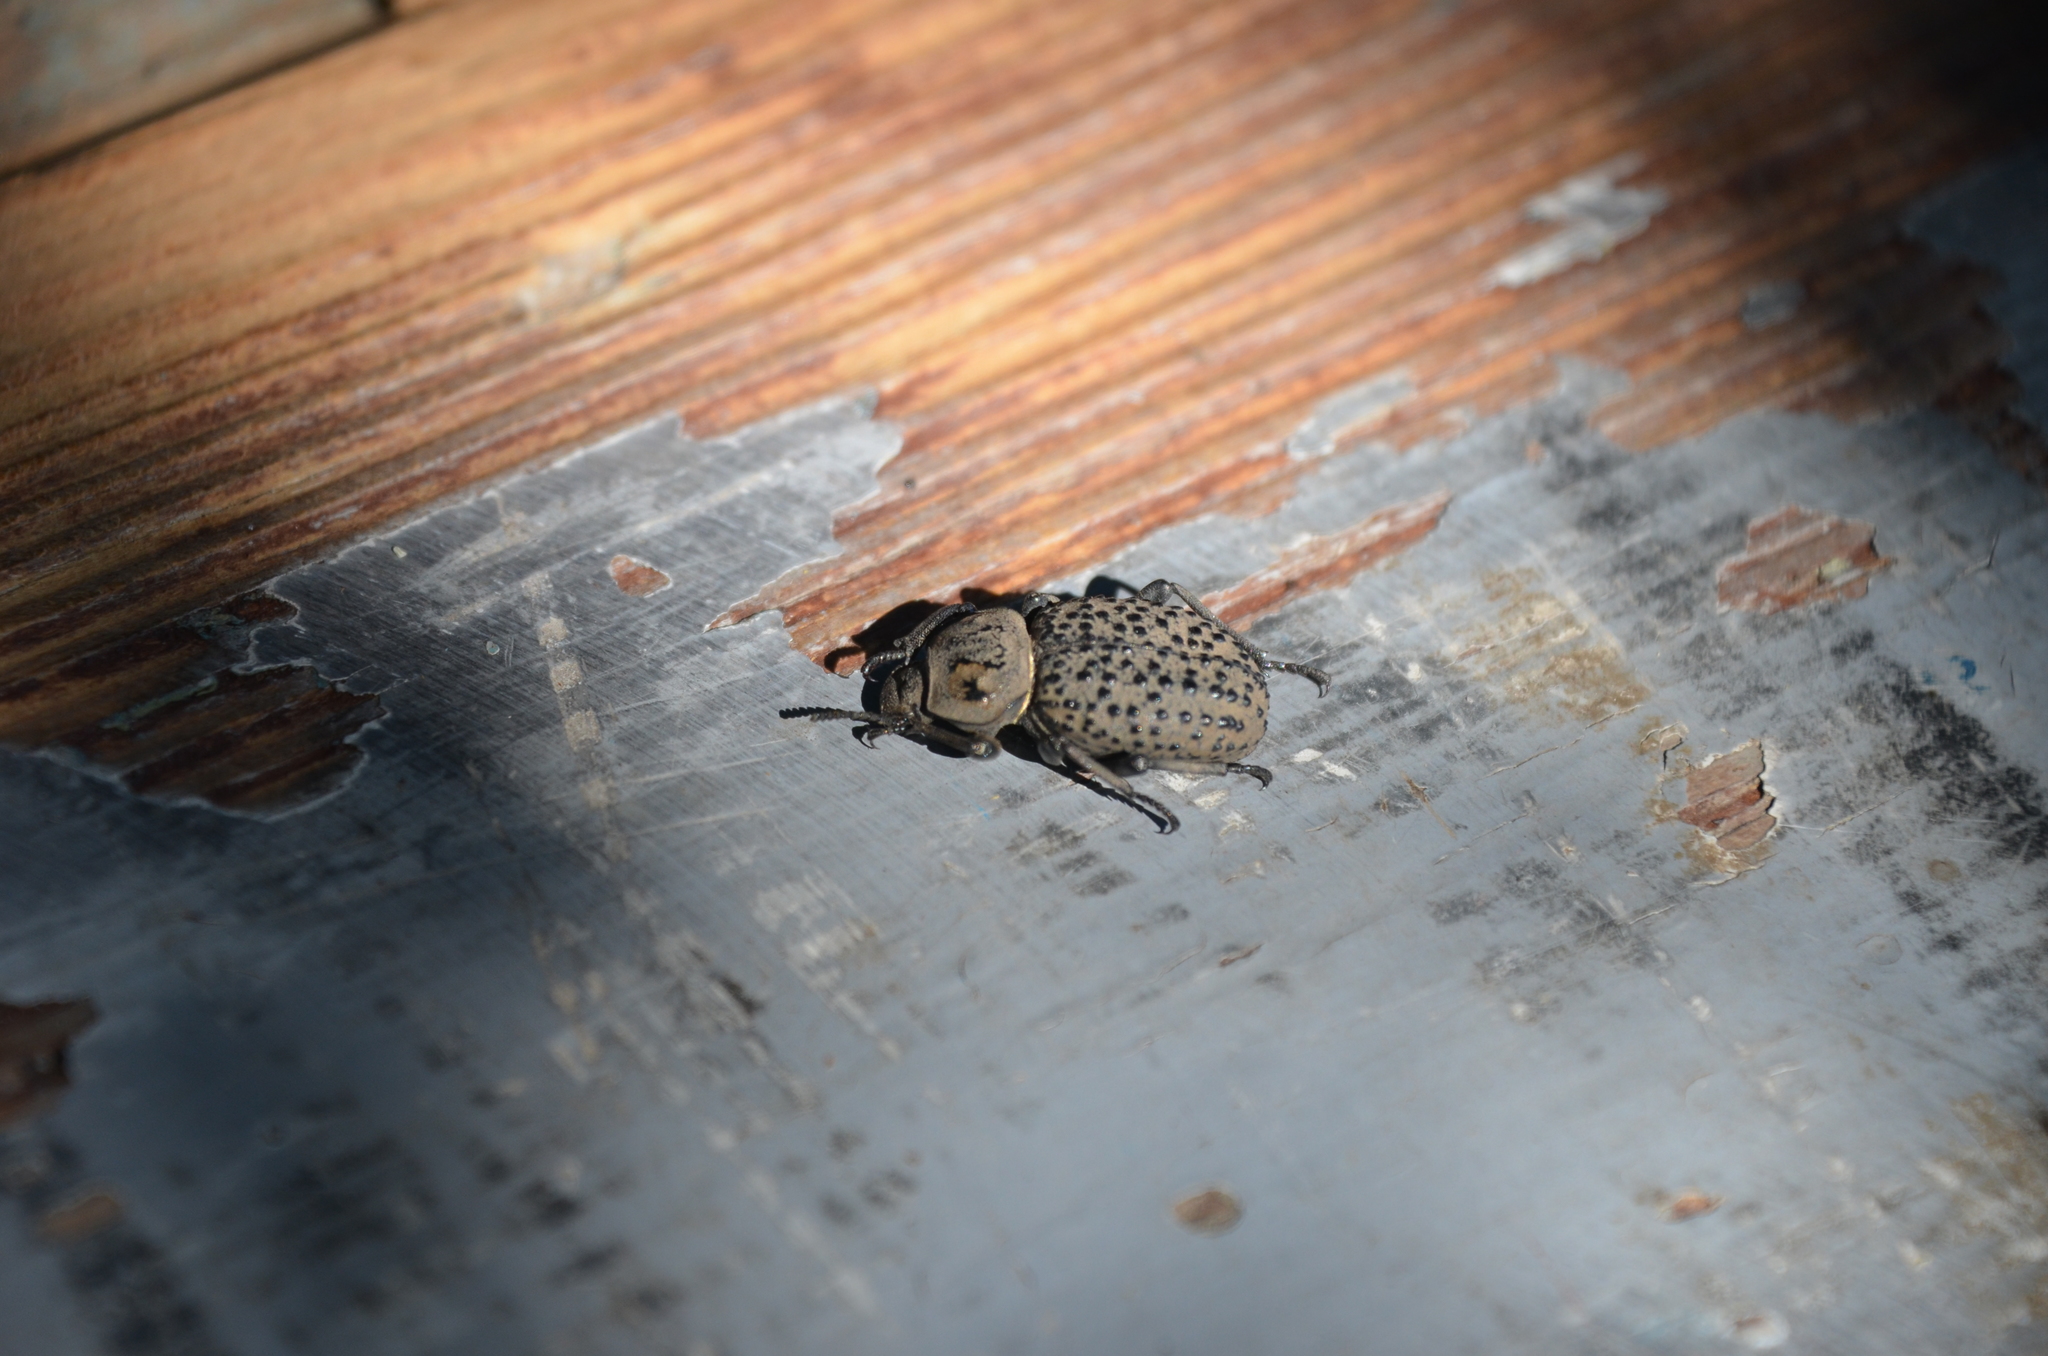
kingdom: Animalia
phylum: Arthropoda
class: Insecta
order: Coleoptera
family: Tenebrionidae
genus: Scotobius
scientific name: Scotobius pilularius
